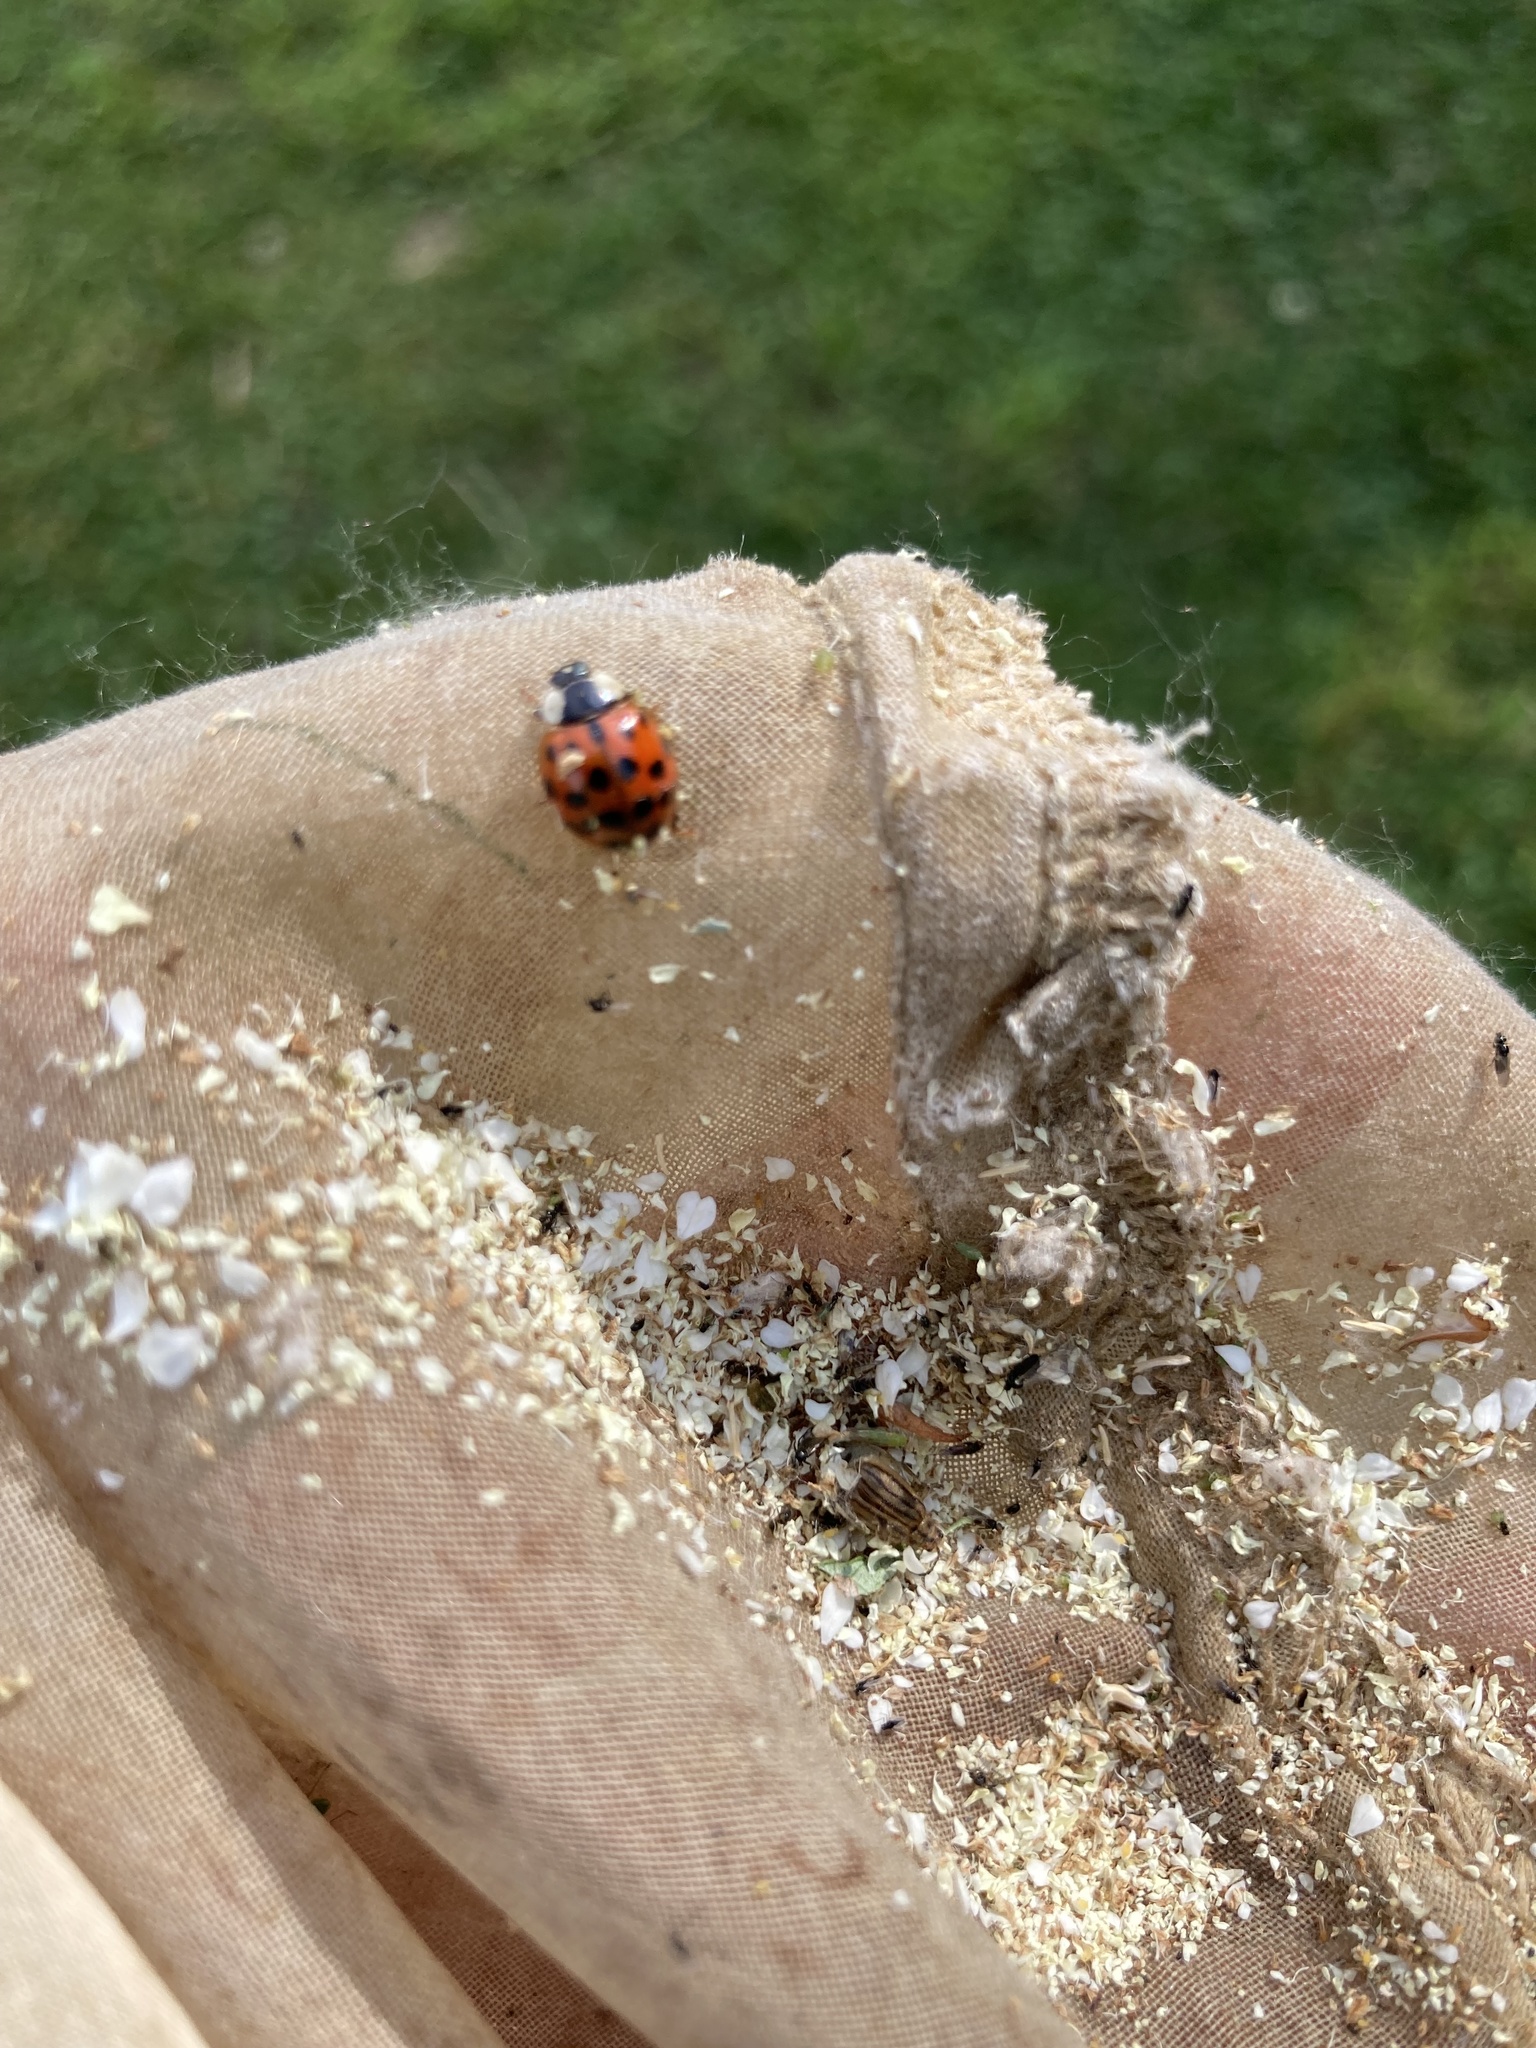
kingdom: Animalia
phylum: Arthropoda
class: Insecta
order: Coleoptera
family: Coccinellidae
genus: Harmonia
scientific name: Harmonia axyridis
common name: Harlequin ladybird
